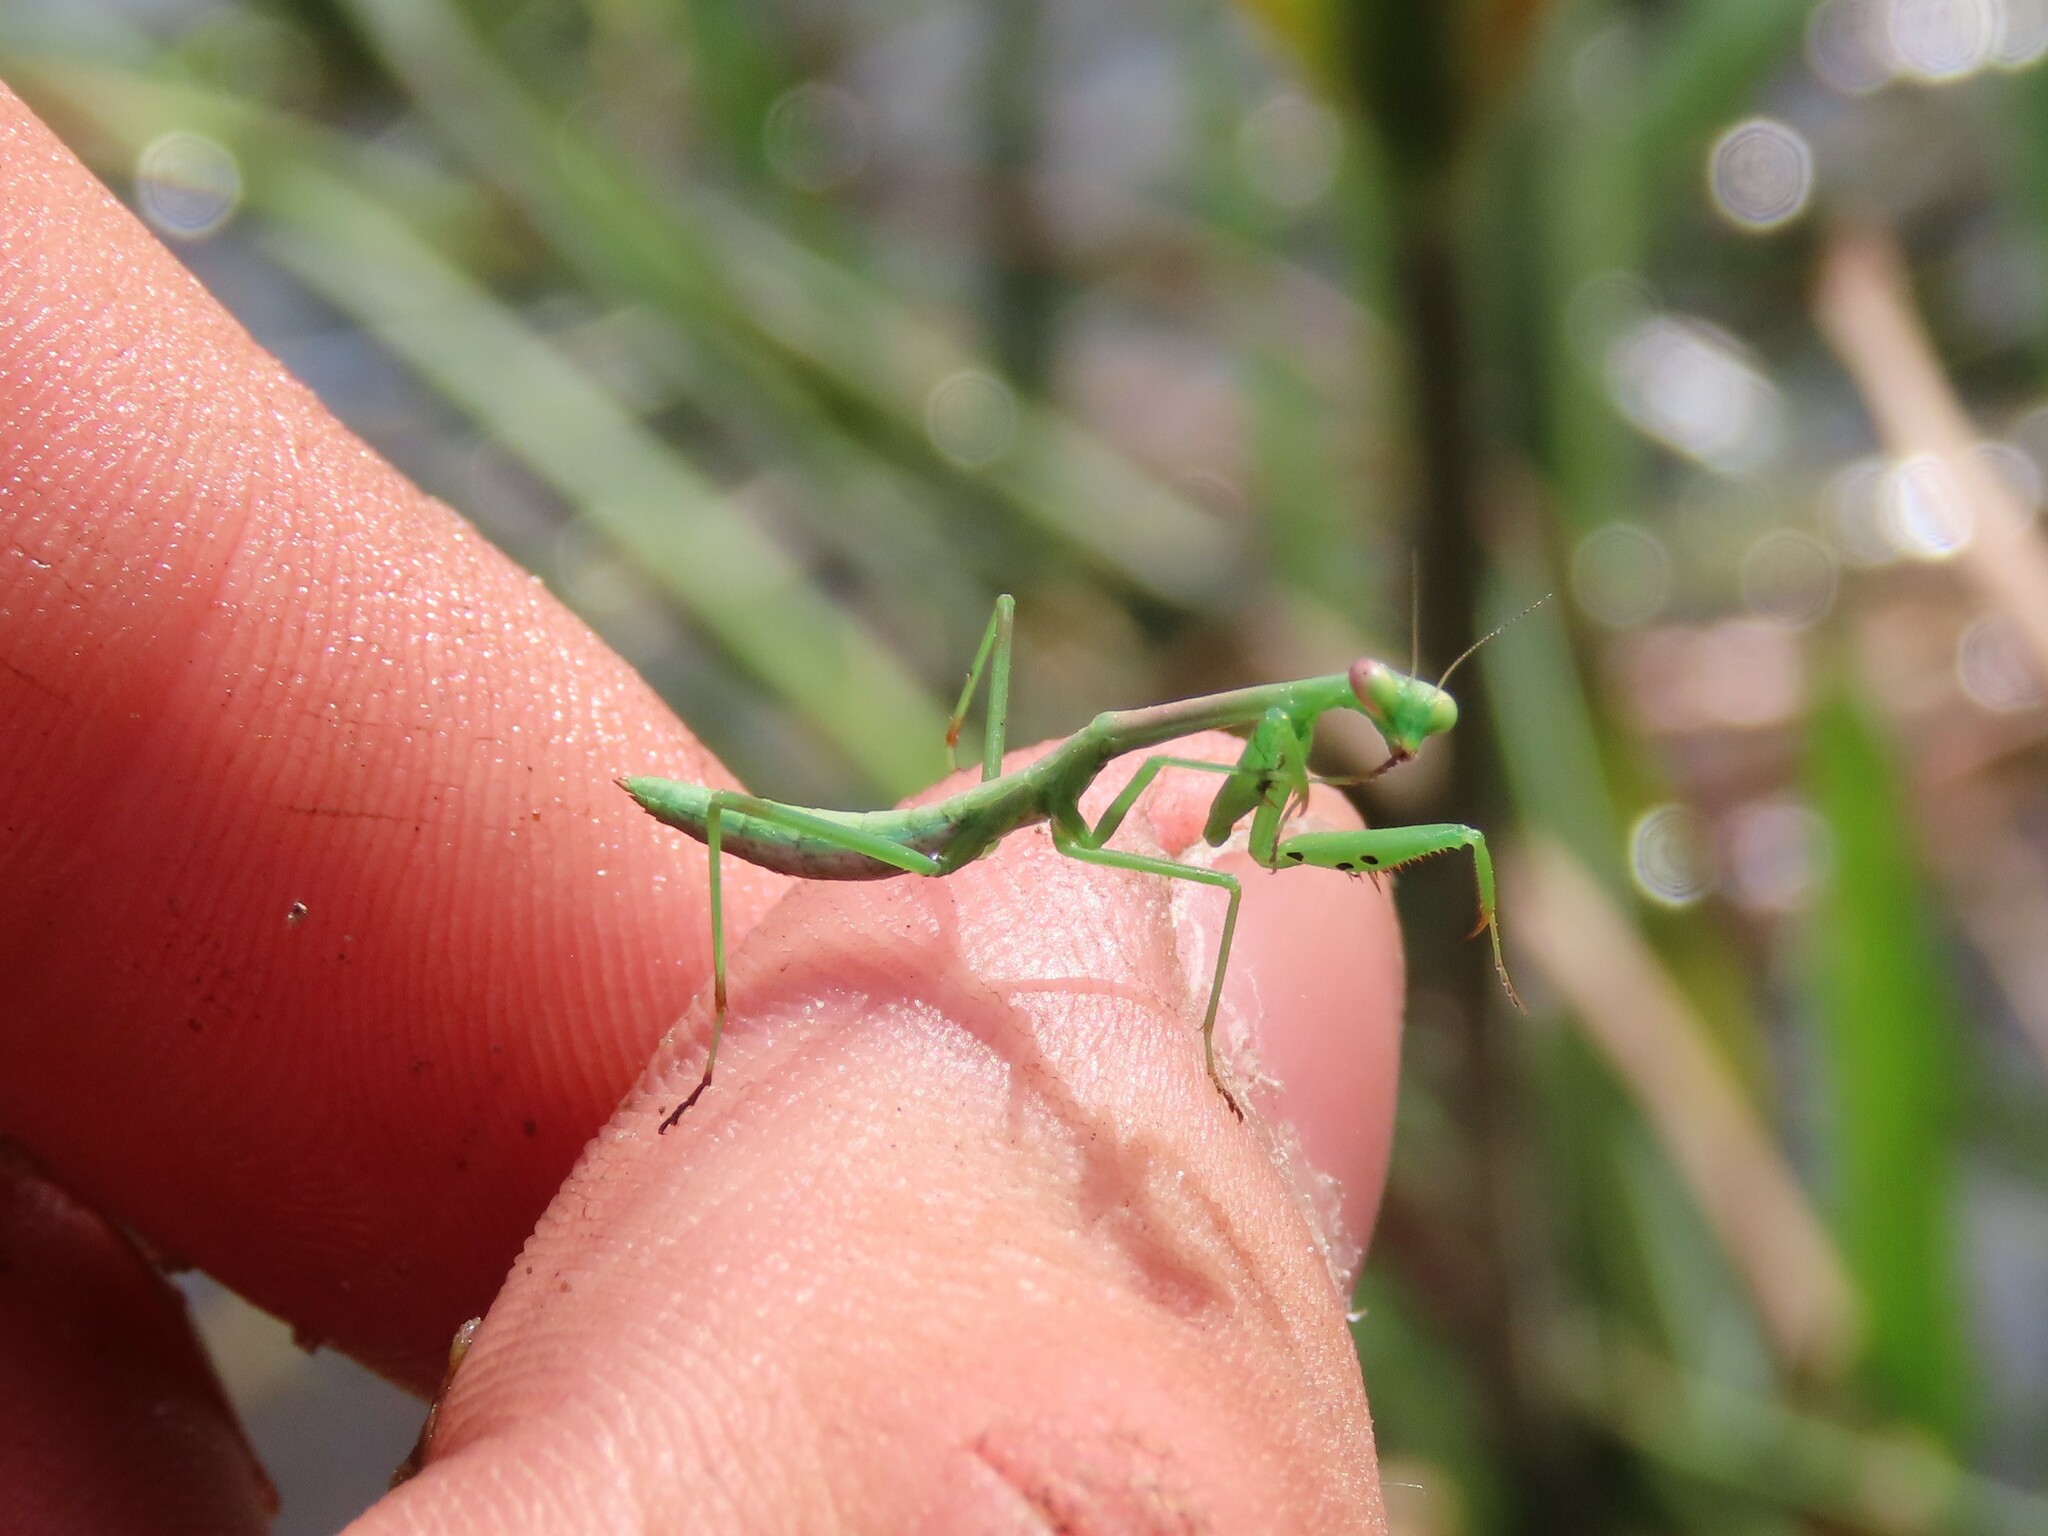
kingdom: Animalia
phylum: Arthropoda
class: Insecta
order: Mantodea
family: Mantidae
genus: Stagmomantis
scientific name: Stagmomantis floridensis
